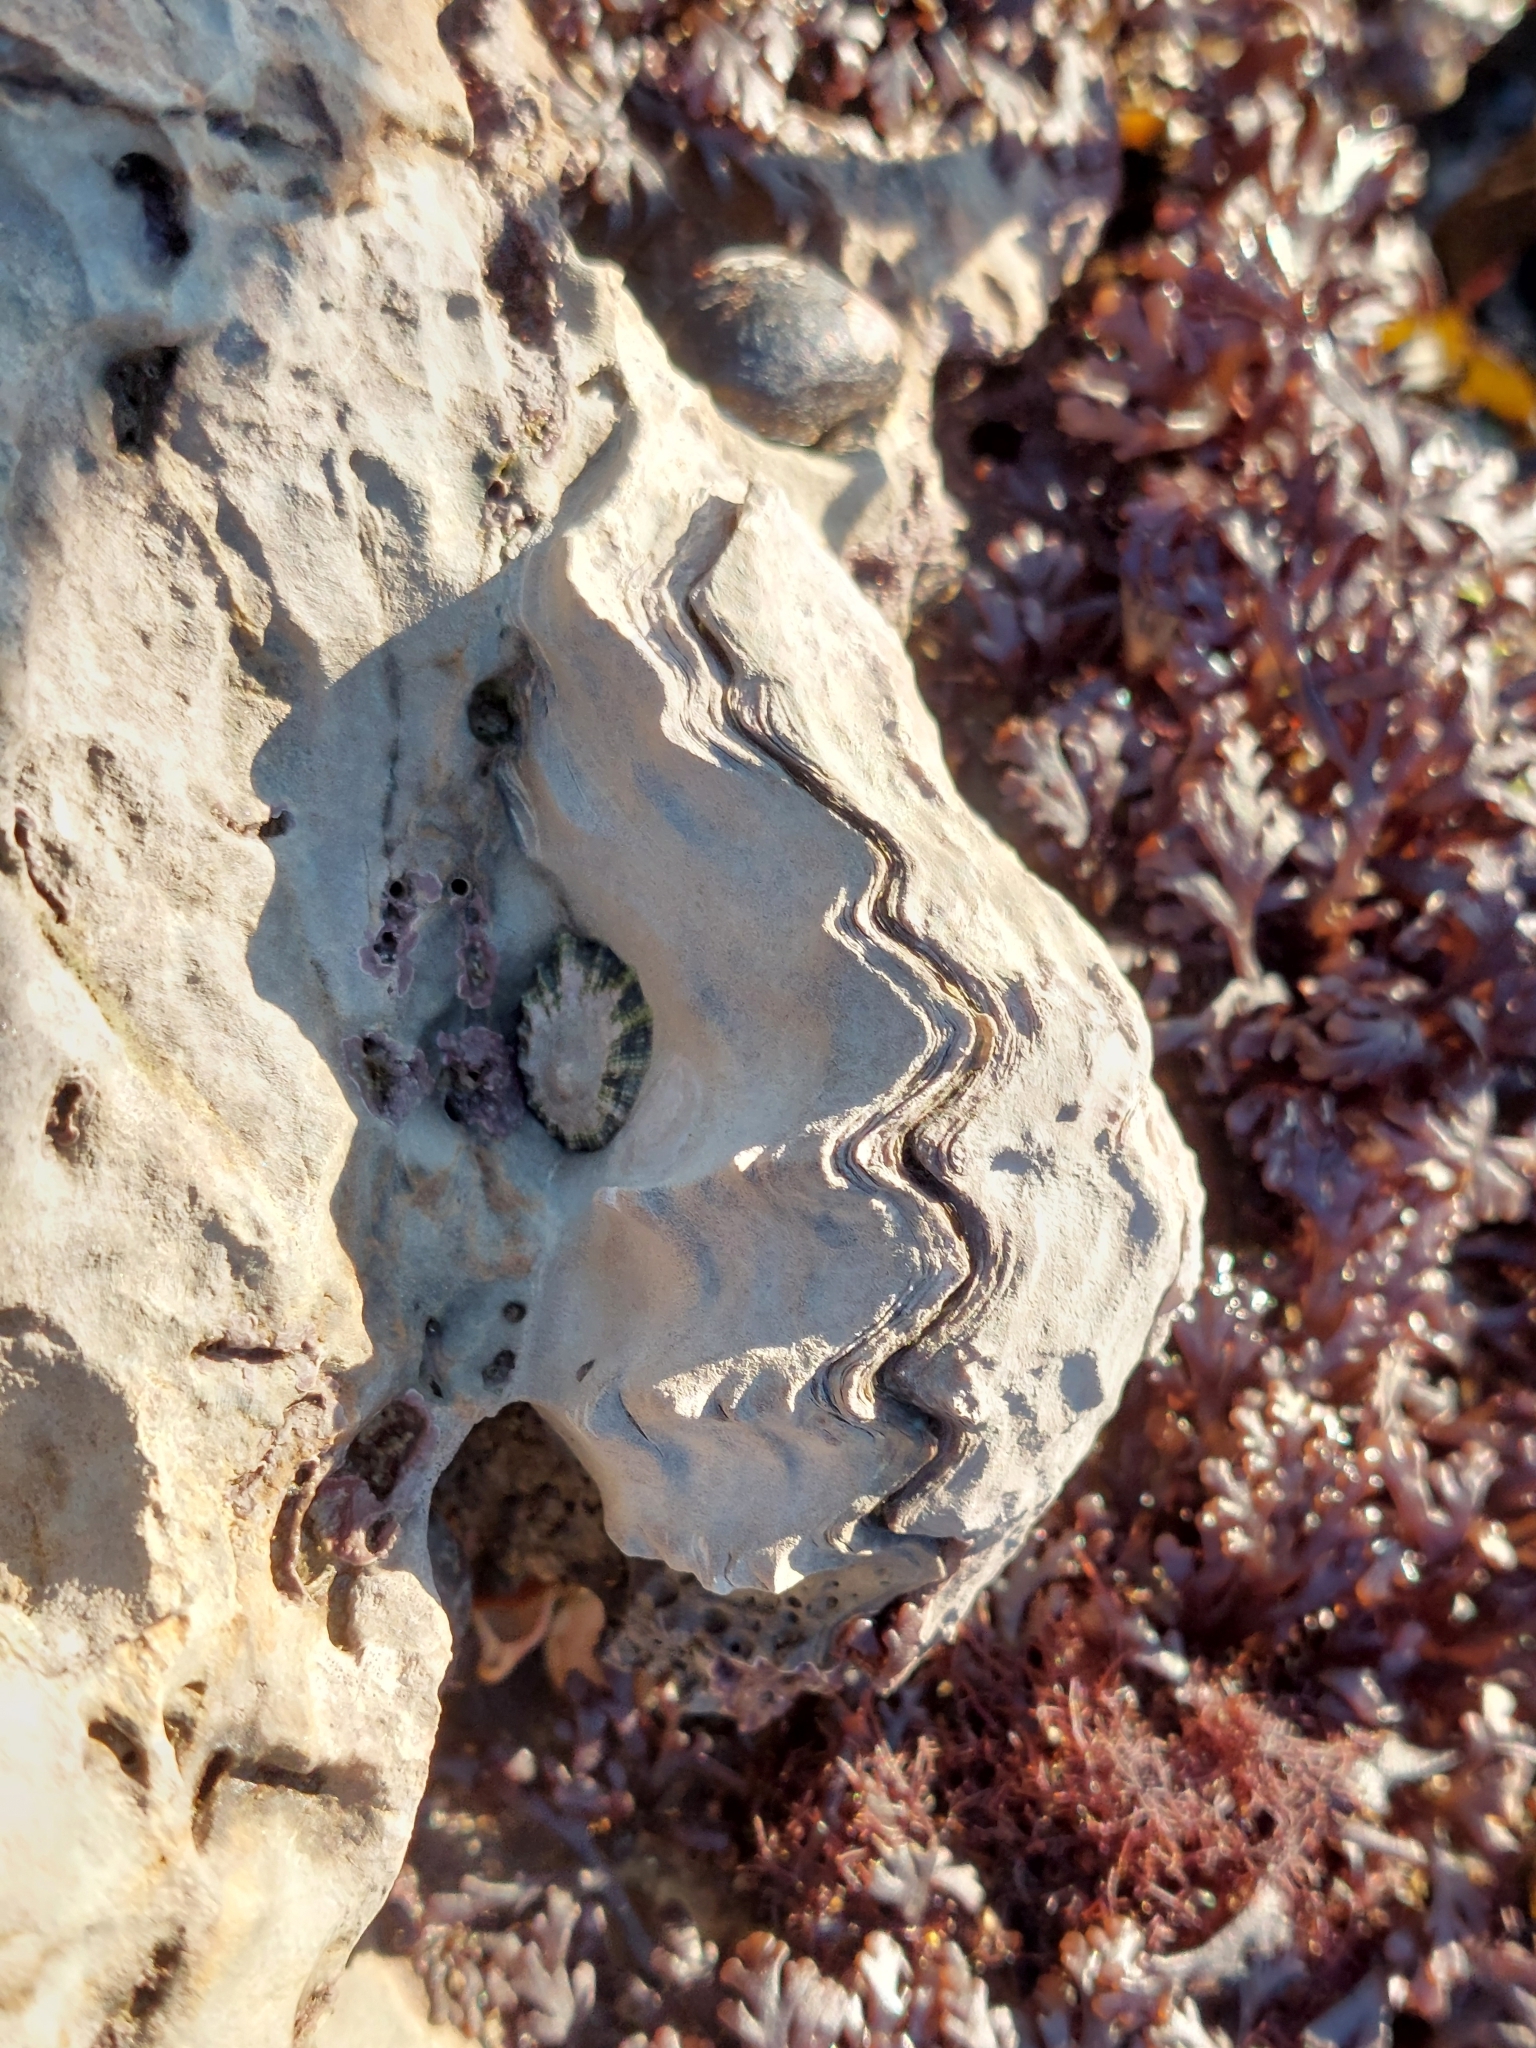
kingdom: Animalia
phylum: Mollusca
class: Bivalvia
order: Ostreida
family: Ostreidae
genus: Magallana
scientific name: Magallana gigas
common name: Pacific oyster
